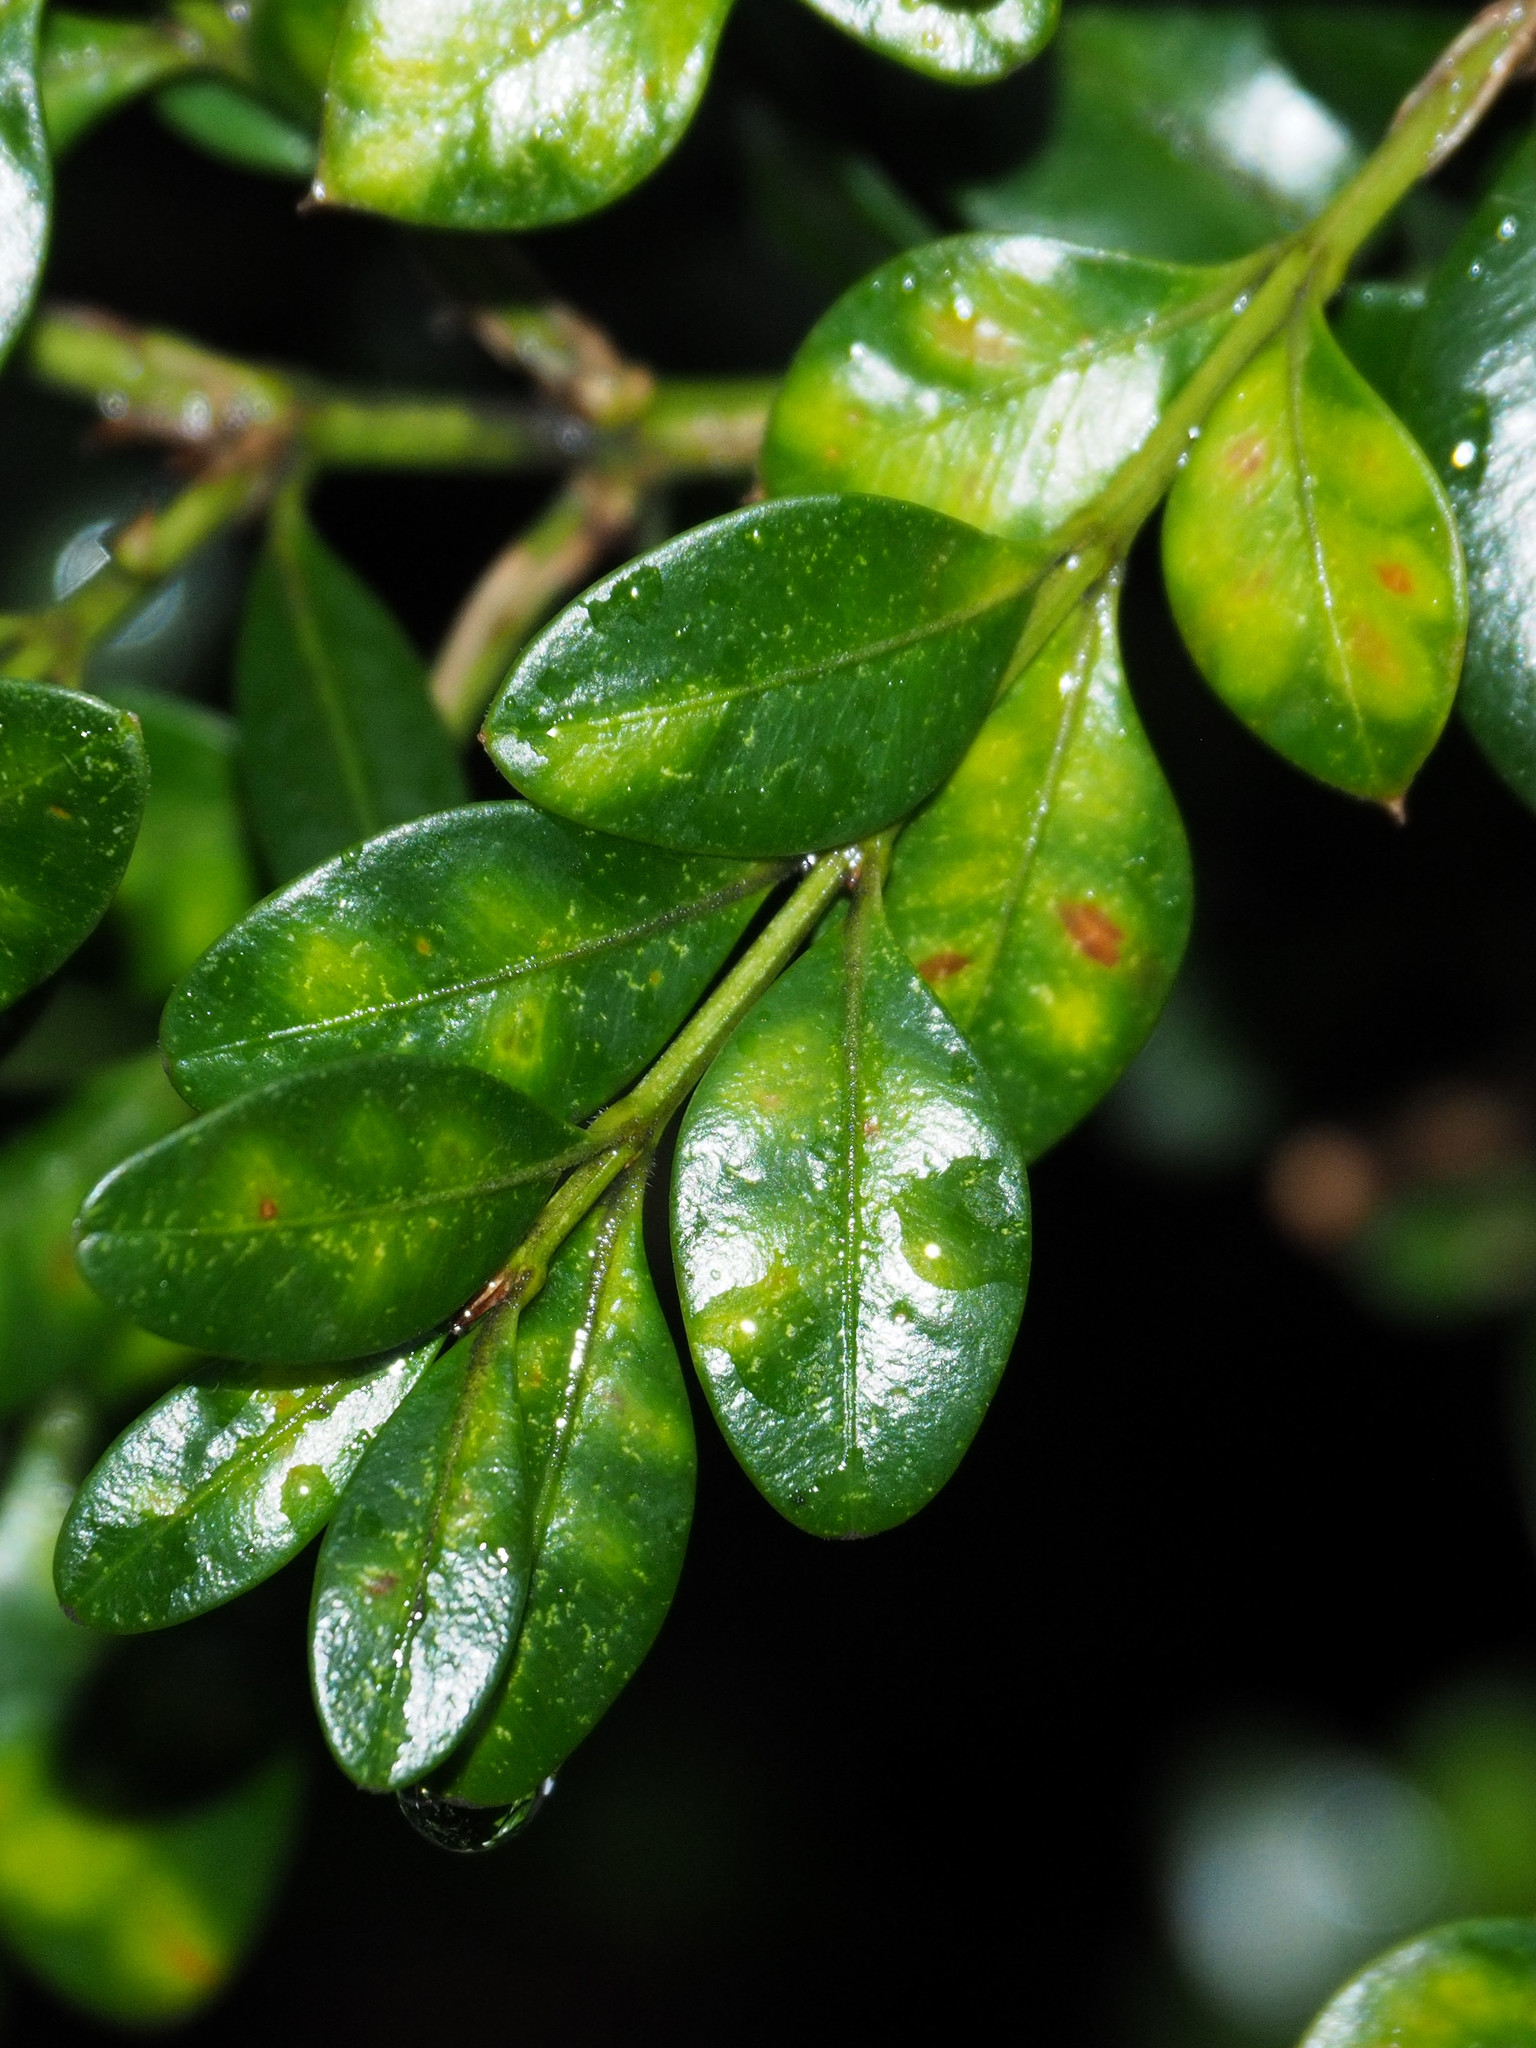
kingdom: Animalia
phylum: Arthropoda
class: Insecta
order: Diptera
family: Cecidomyiidae
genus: Monarthropalpus
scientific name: Monarthropalpus flavus
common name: Boxwood leafminer
